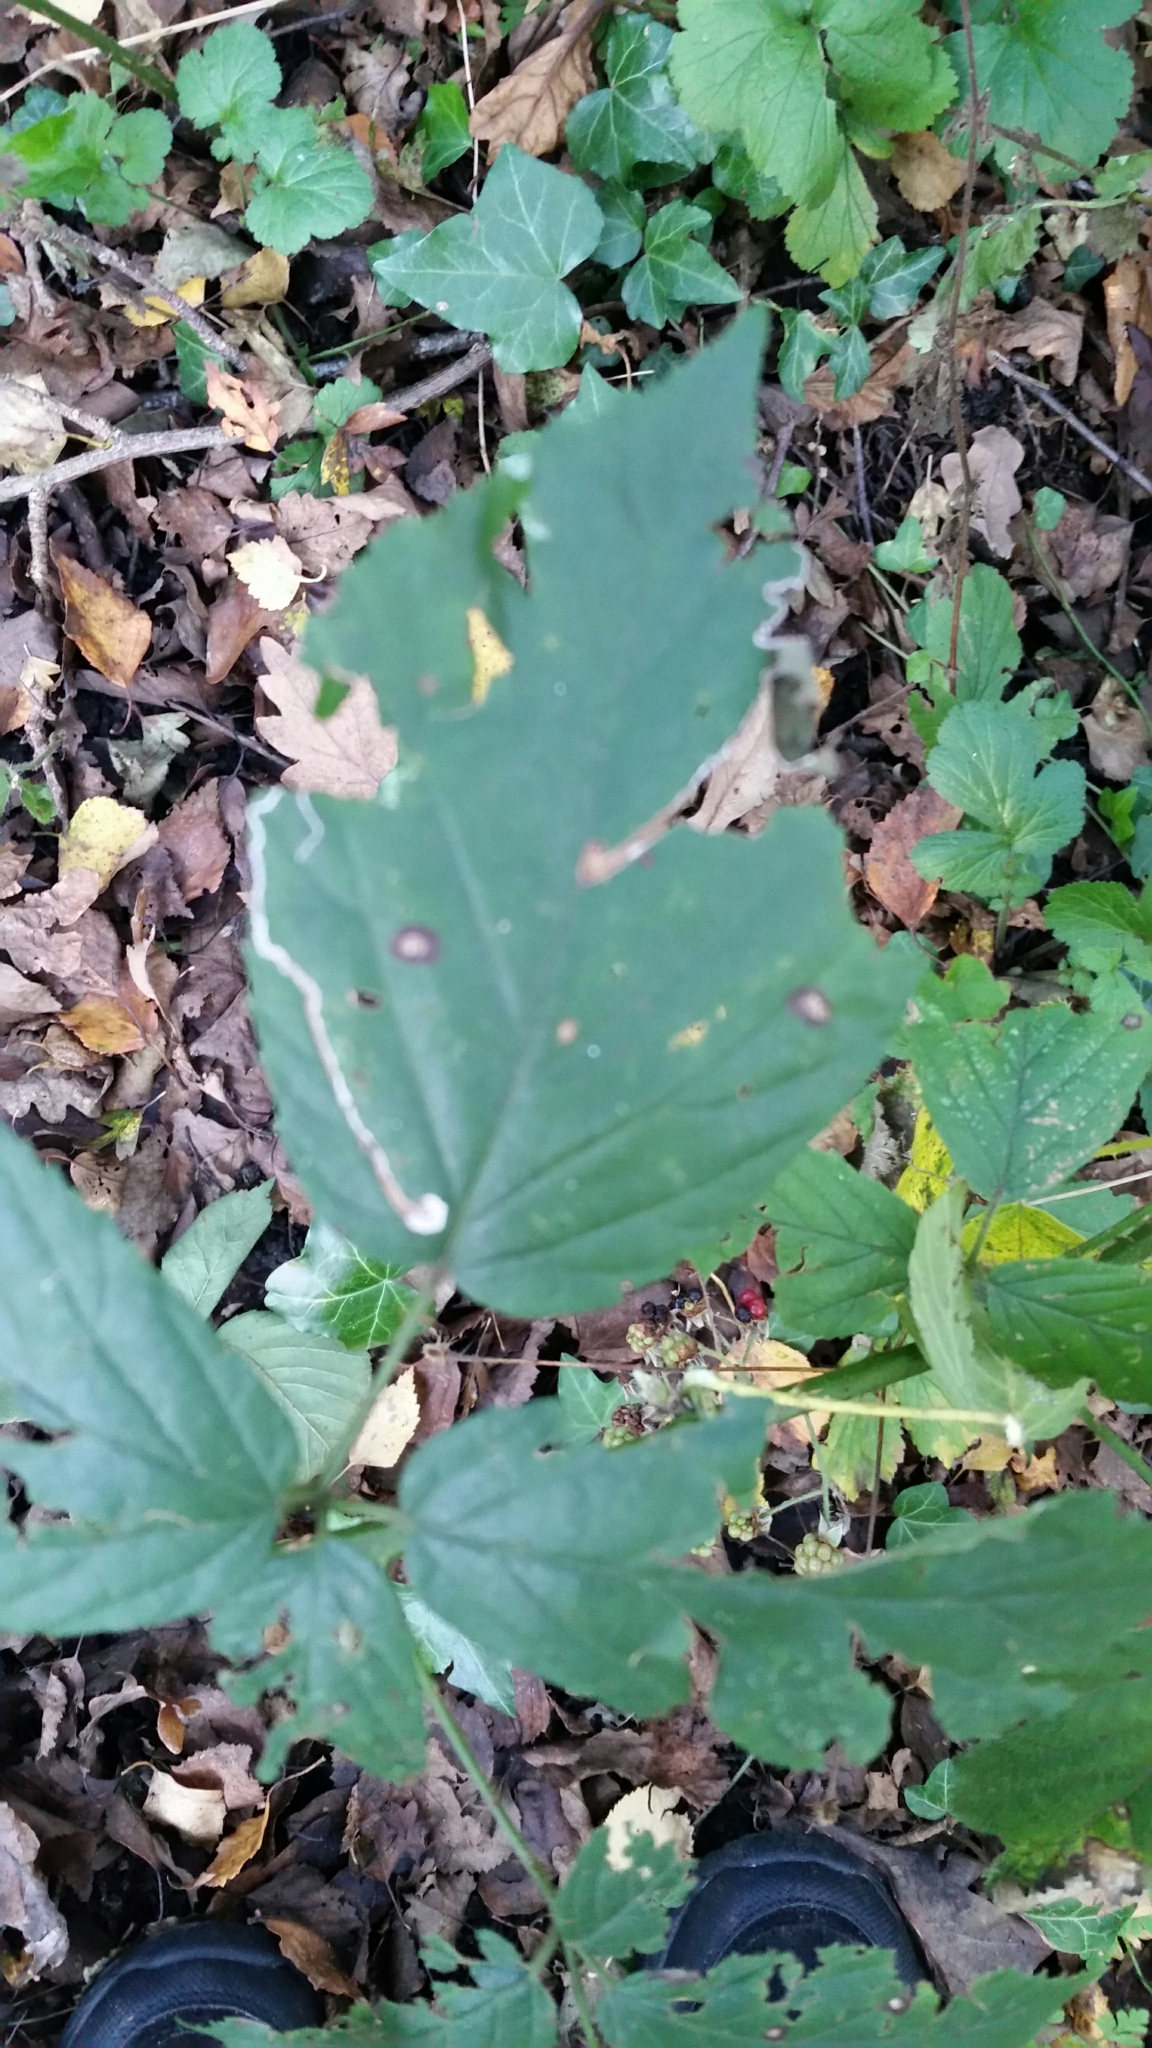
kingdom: Animalia
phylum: Arthropoda
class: Insecta
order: Lepidoptera
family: Nepticulidae
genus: Stigmella
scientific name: Stigmella aurella
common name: Golden pigmy
